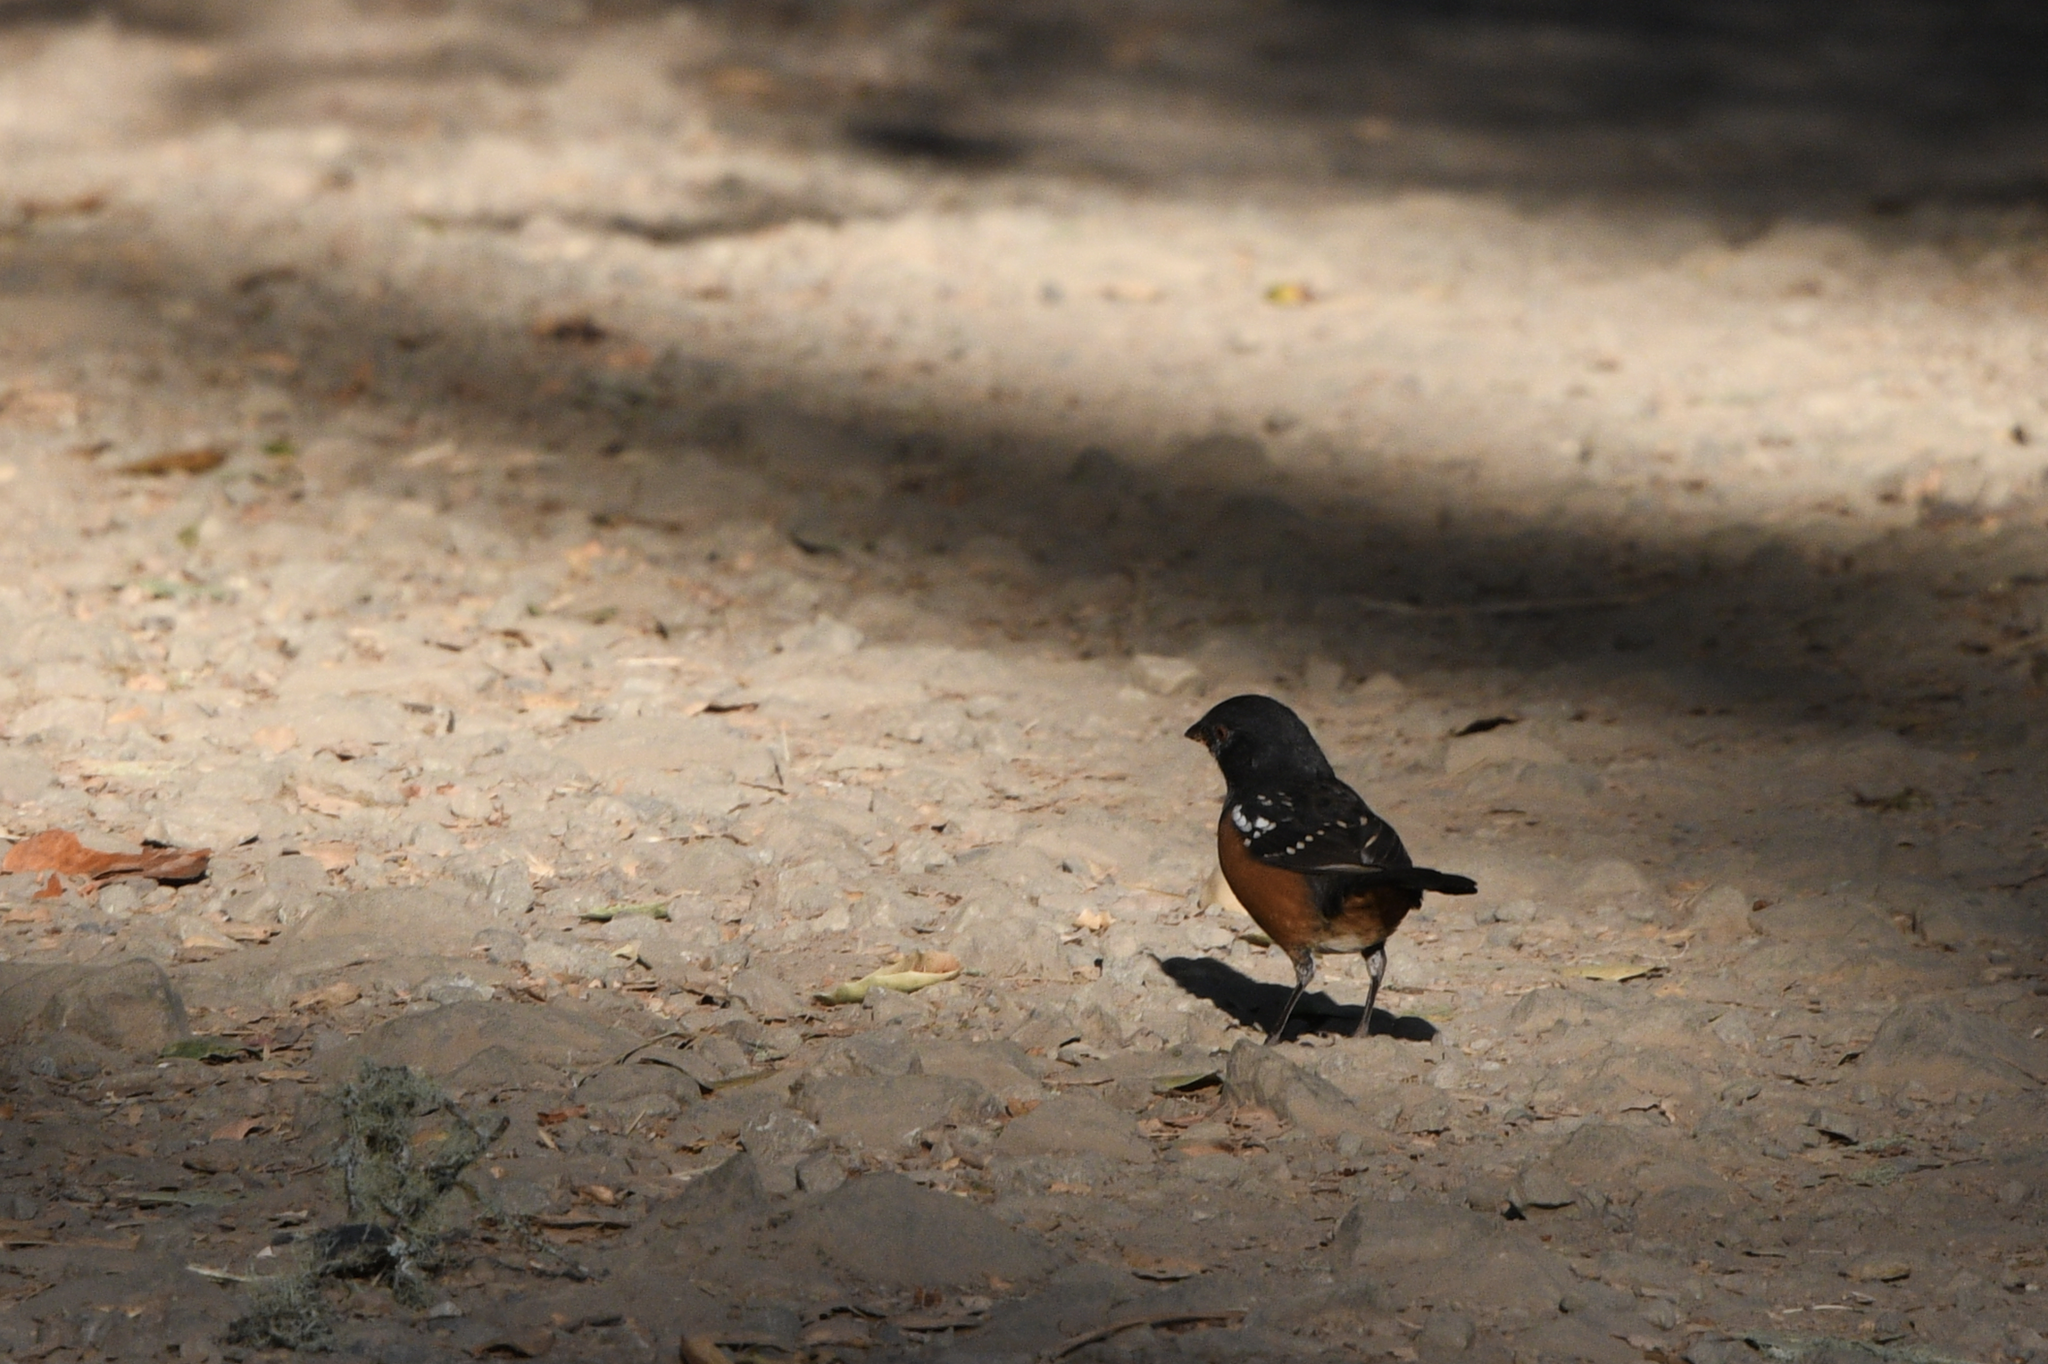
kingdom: Animalia
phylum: Chordata
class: Aves
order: Passeriformes
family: Passerellidae
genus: Pipilo
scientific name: Pipilo maculatus
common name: Spotted towhee
